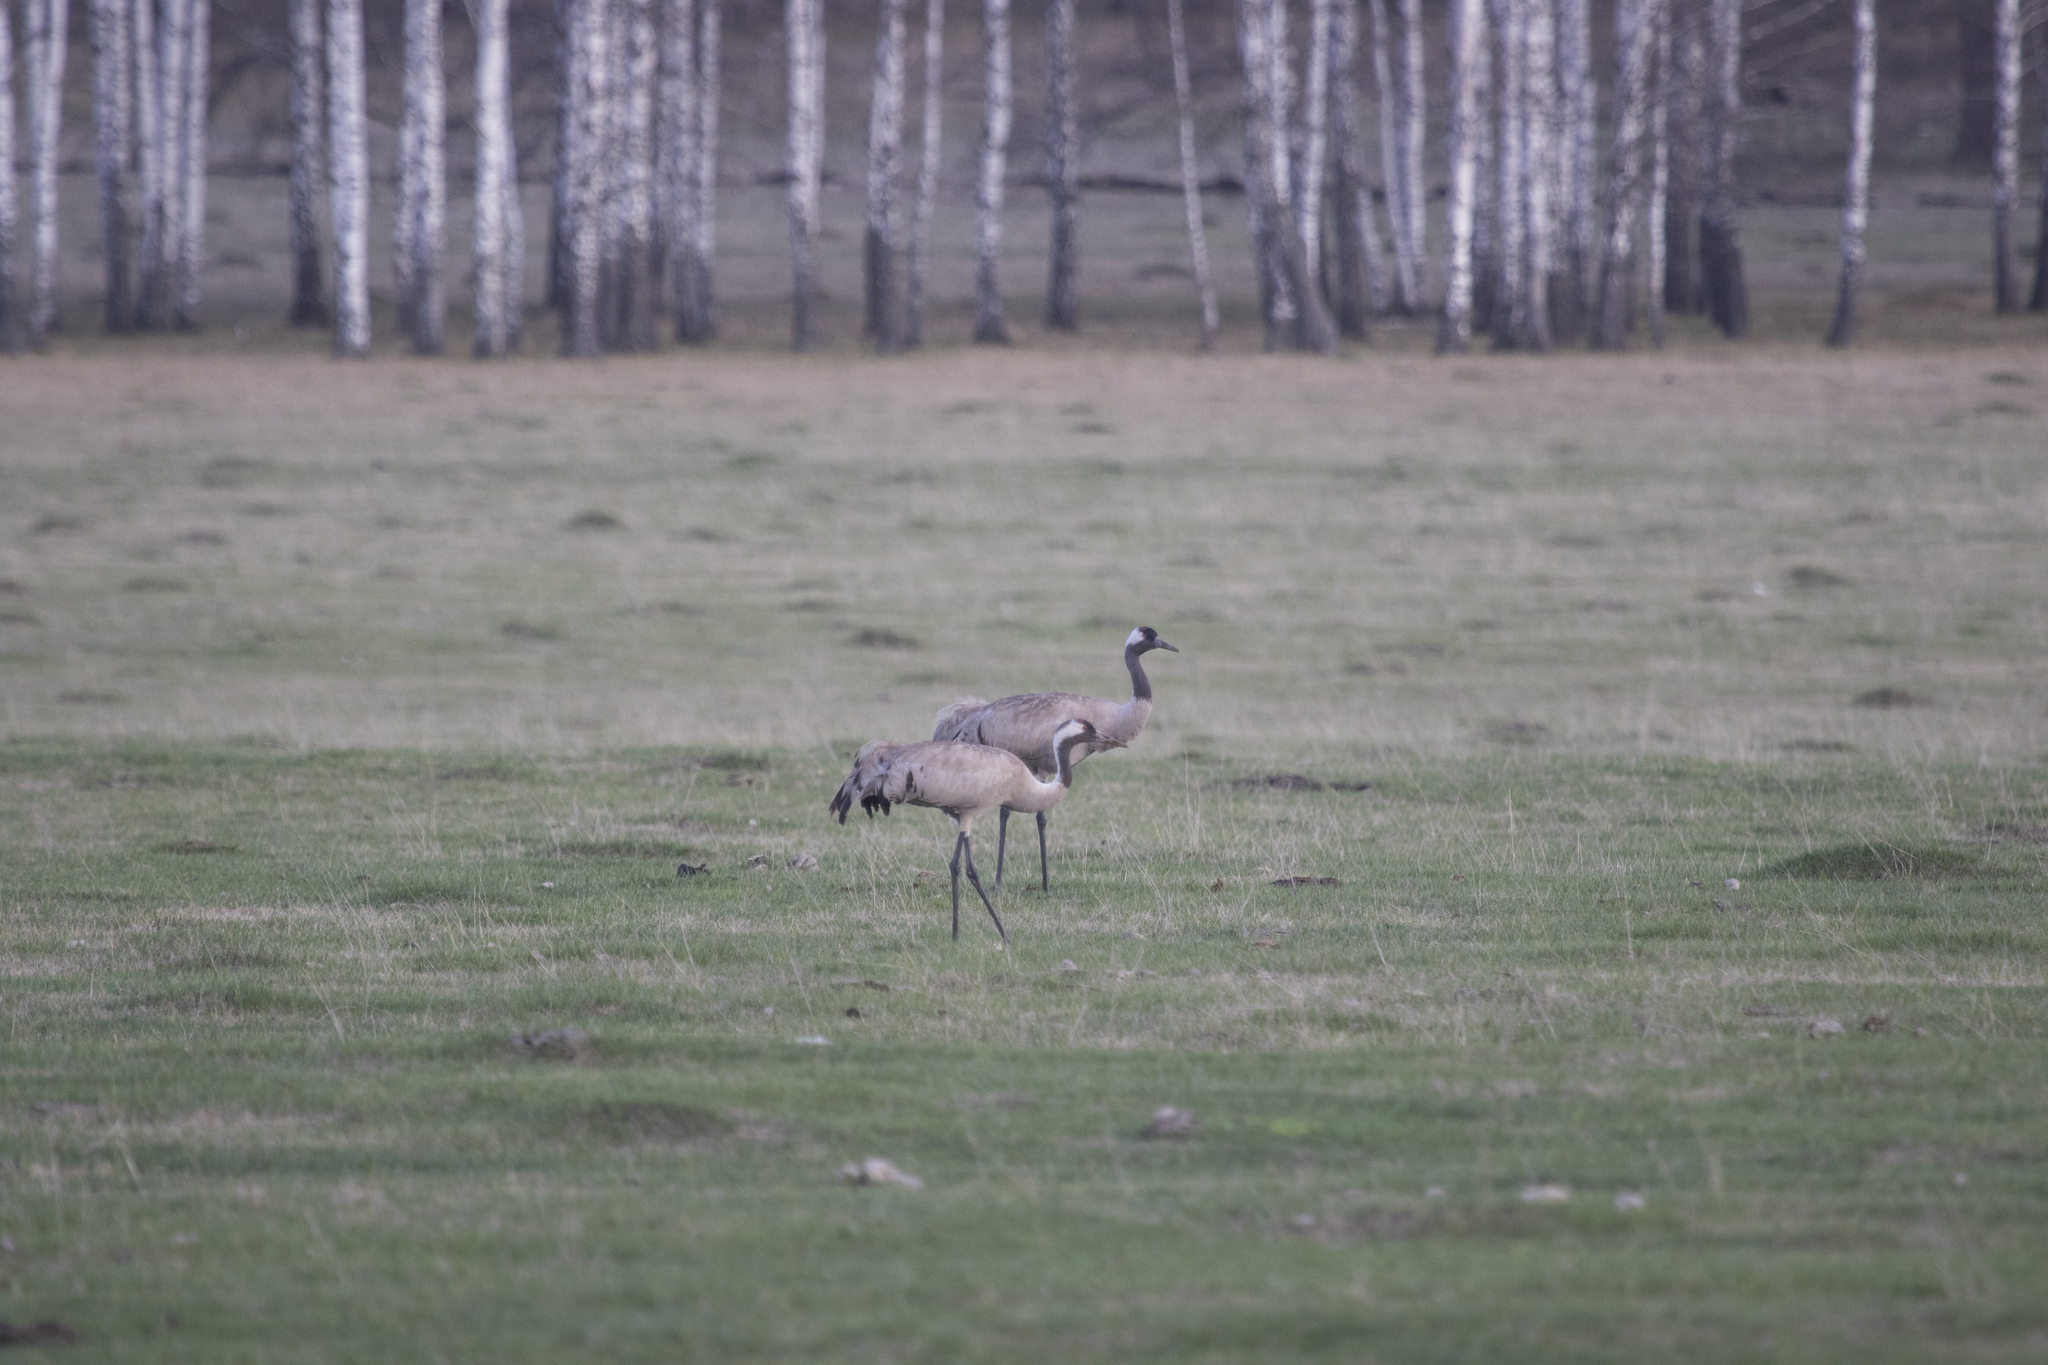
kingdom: Animalia
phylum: Chordata
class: Aves
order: Gruiformes
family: Gruidae
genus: Grus
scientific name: Grus grus
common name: Common crane
